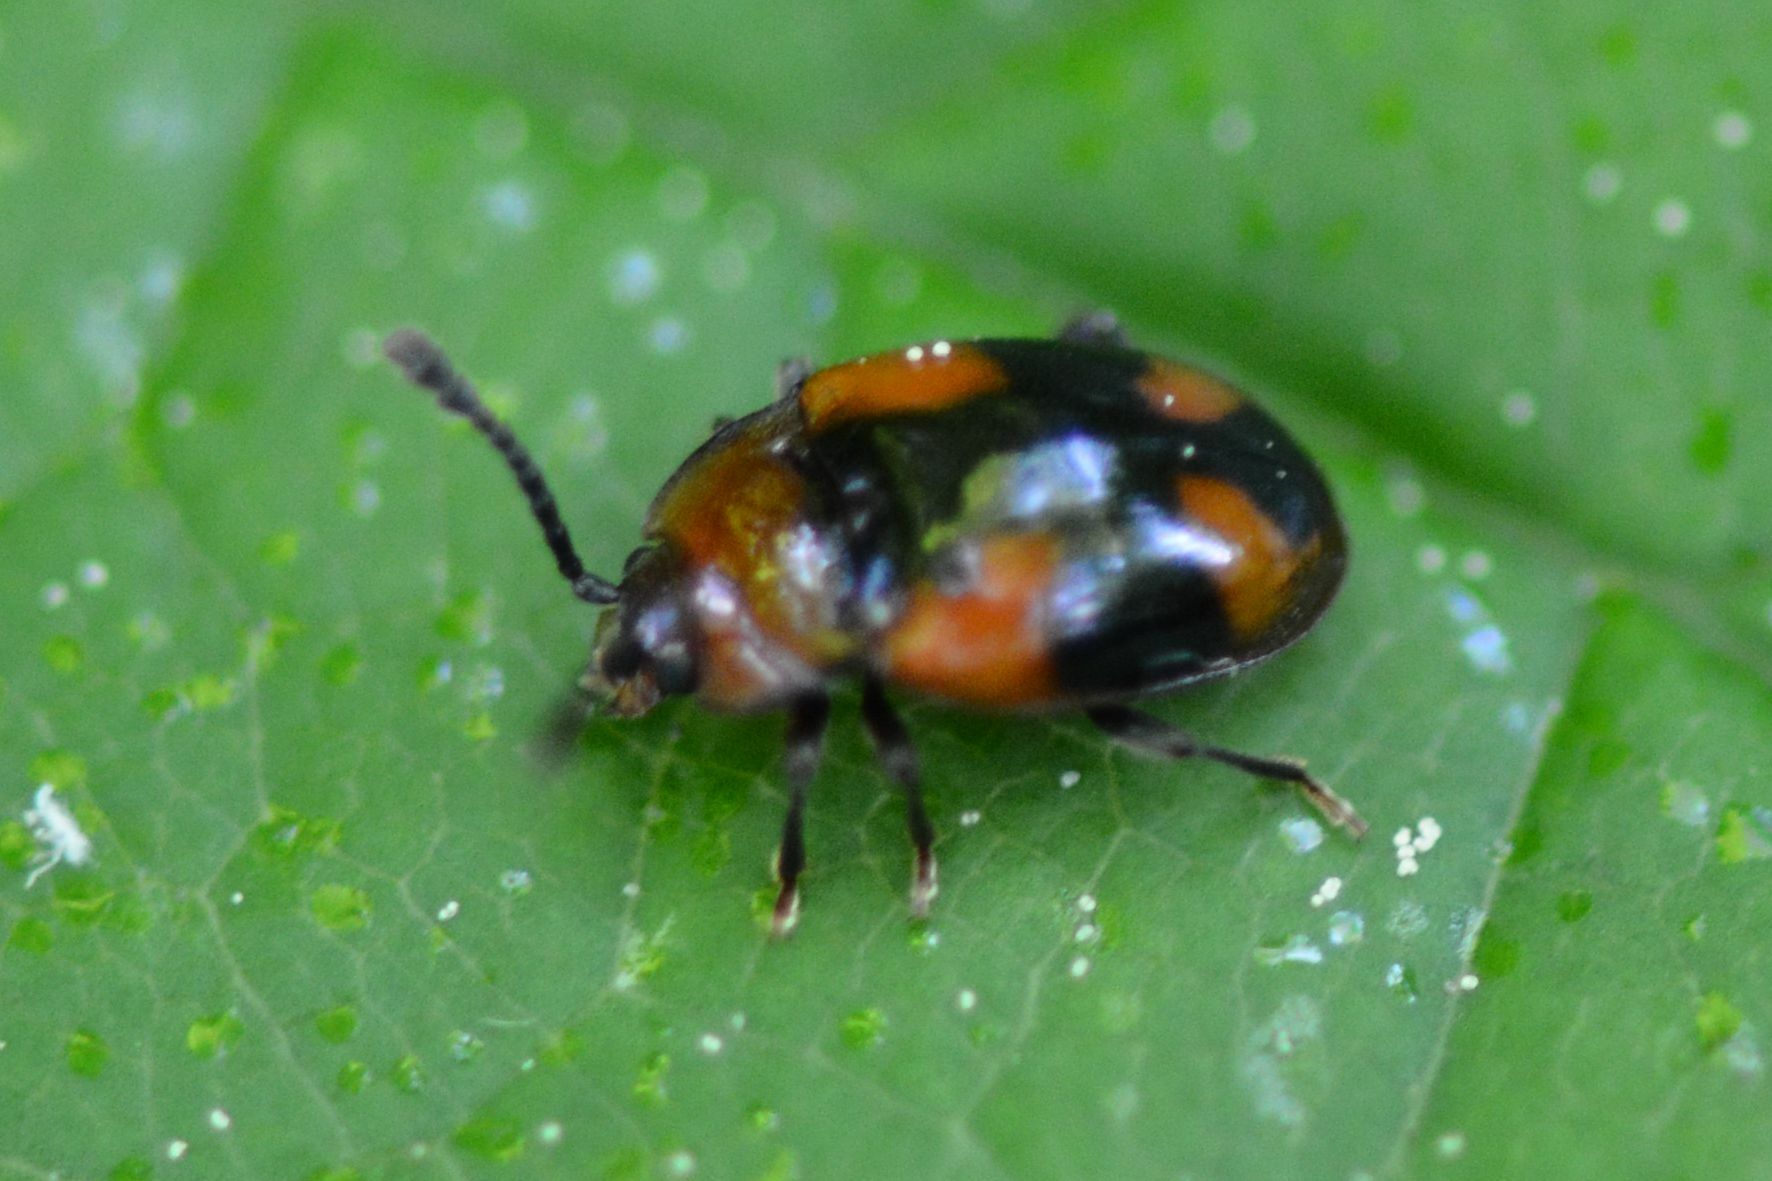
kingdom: Animalia
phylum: Arthropoda
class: Insecta
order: Coleoptera
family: Endomychidae
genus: Mycetina
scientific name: Mycetina cruciata
